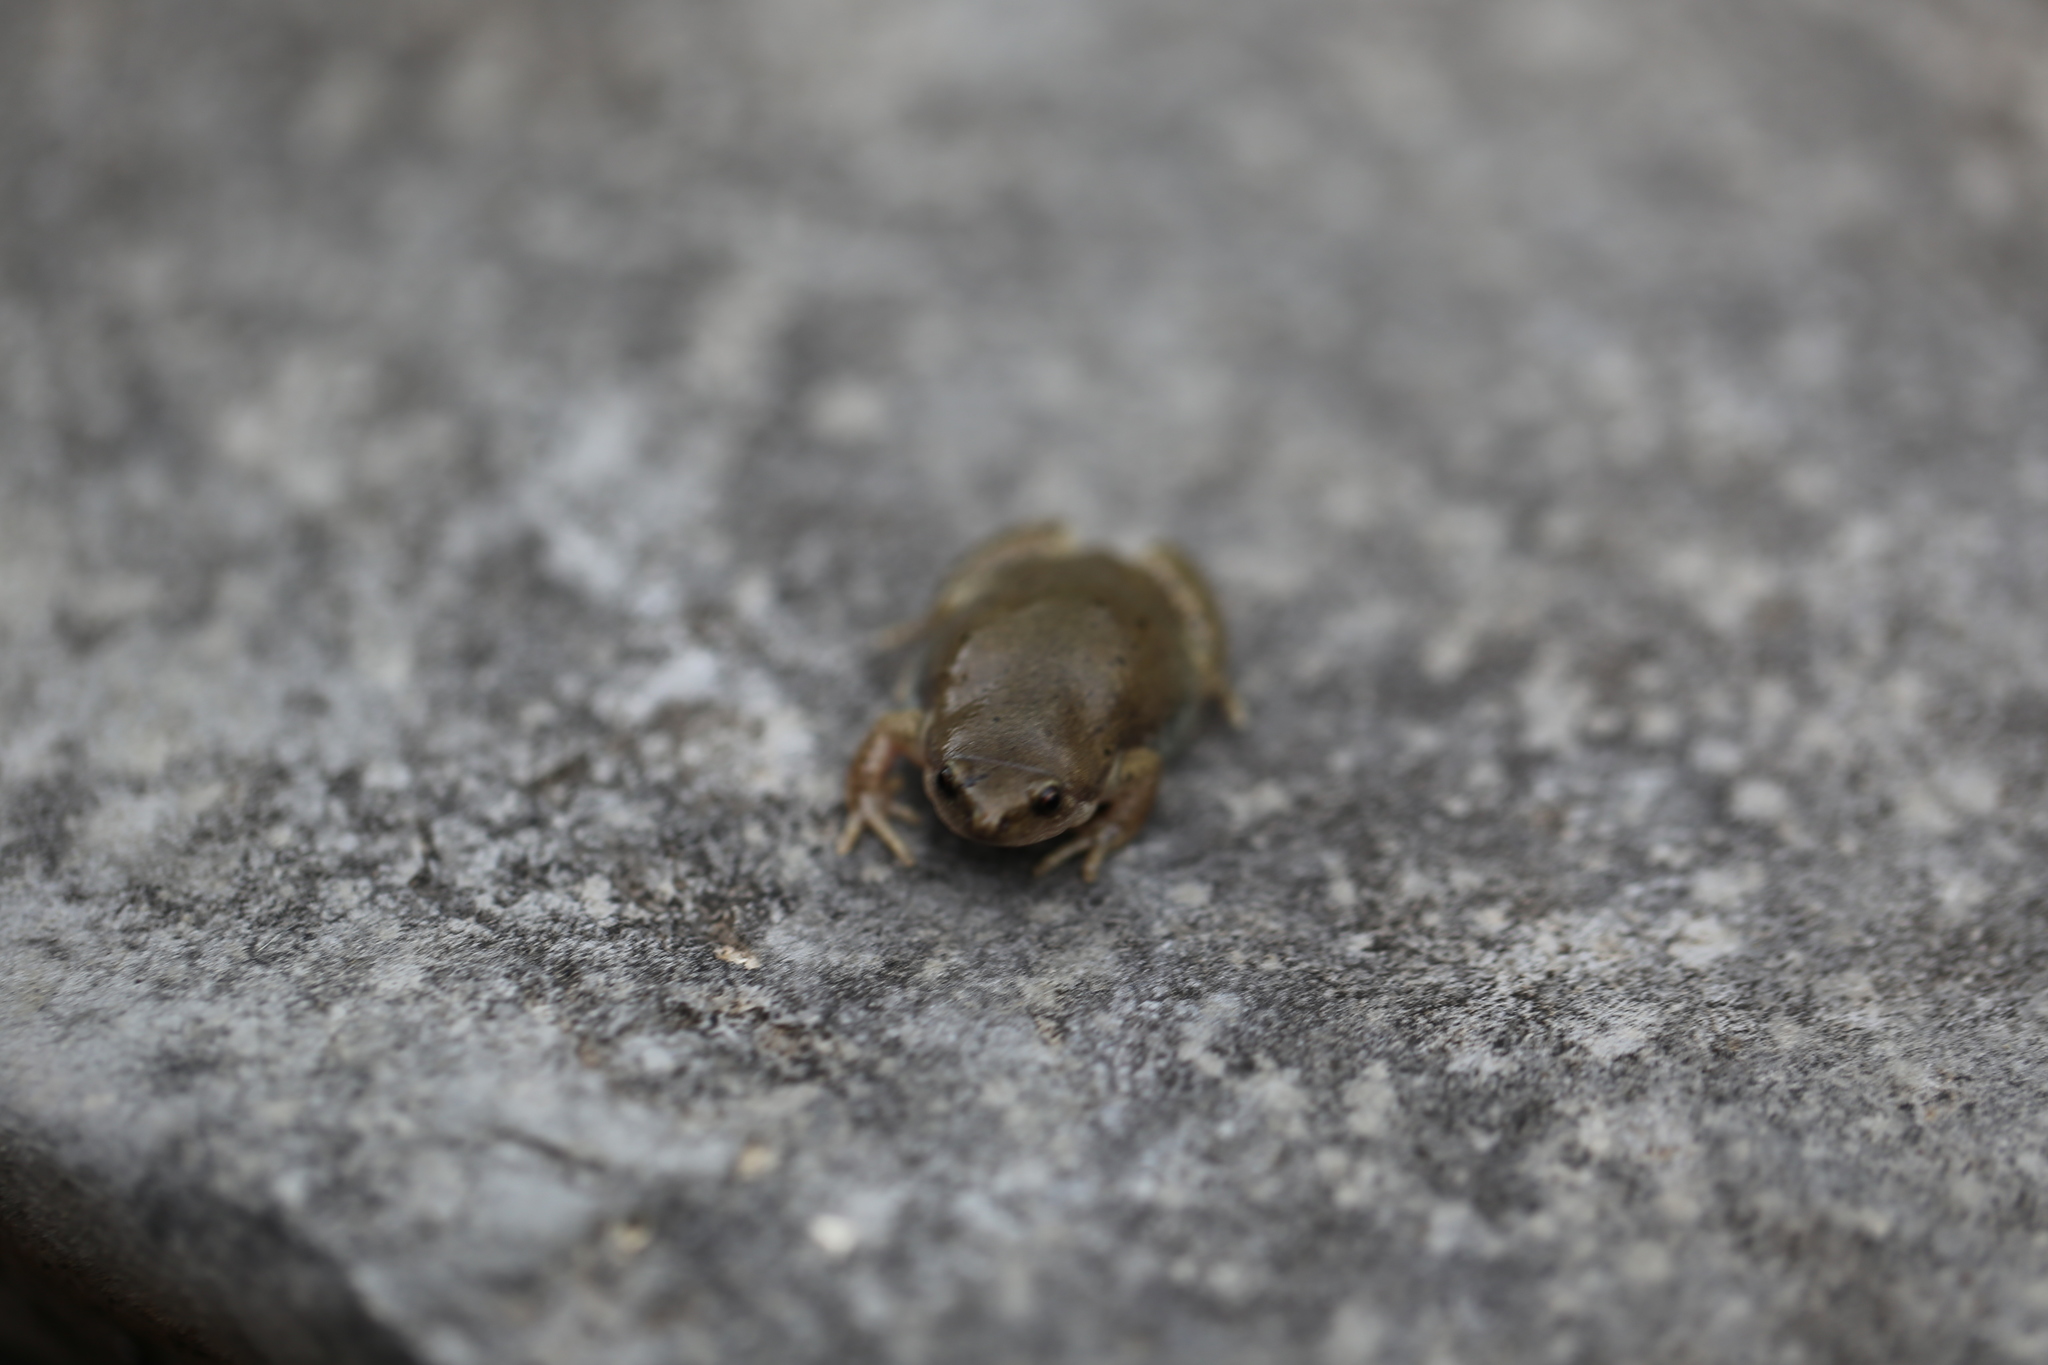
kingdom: Animalia
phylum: Chordata
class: Amphibia
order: Anura
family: Microhylidae
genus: Gastrophryne
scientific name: Gastrophryne olivacea
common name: Great plains narrow-mouthed toad
